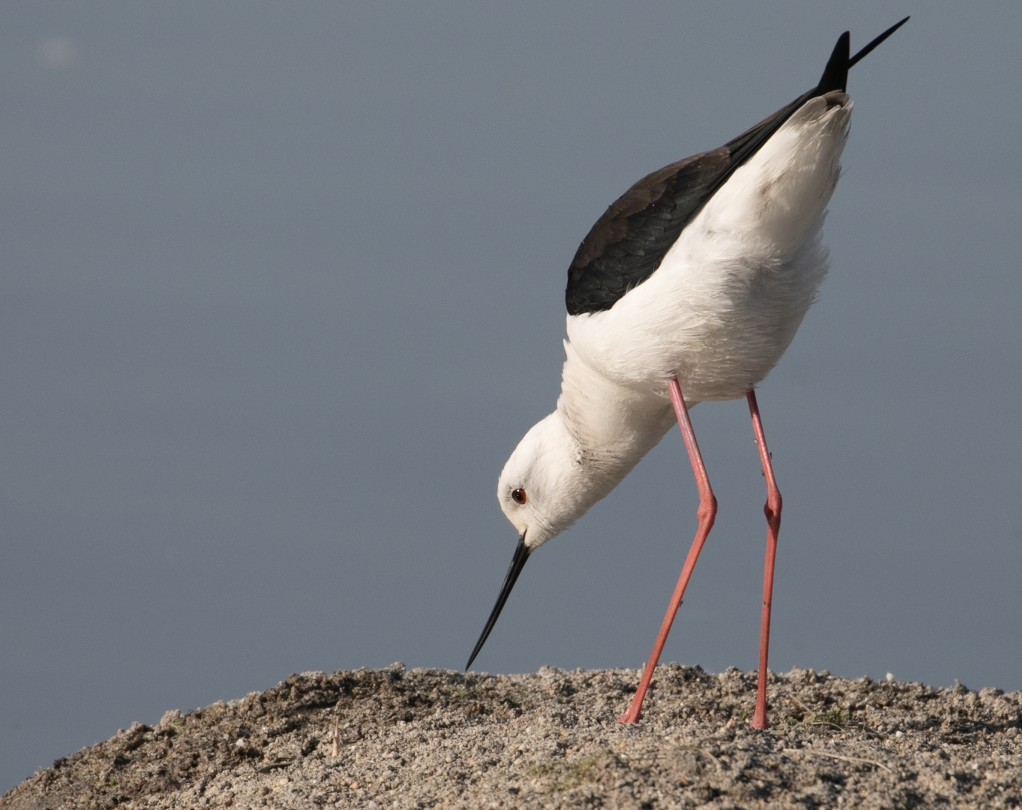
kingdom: Animalia
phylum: Chordata
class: Aves
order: Charadriiformes
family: Recurvirostridae
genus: Himantopus
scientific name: Himantopus himantopus
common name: Black-winged stilt
